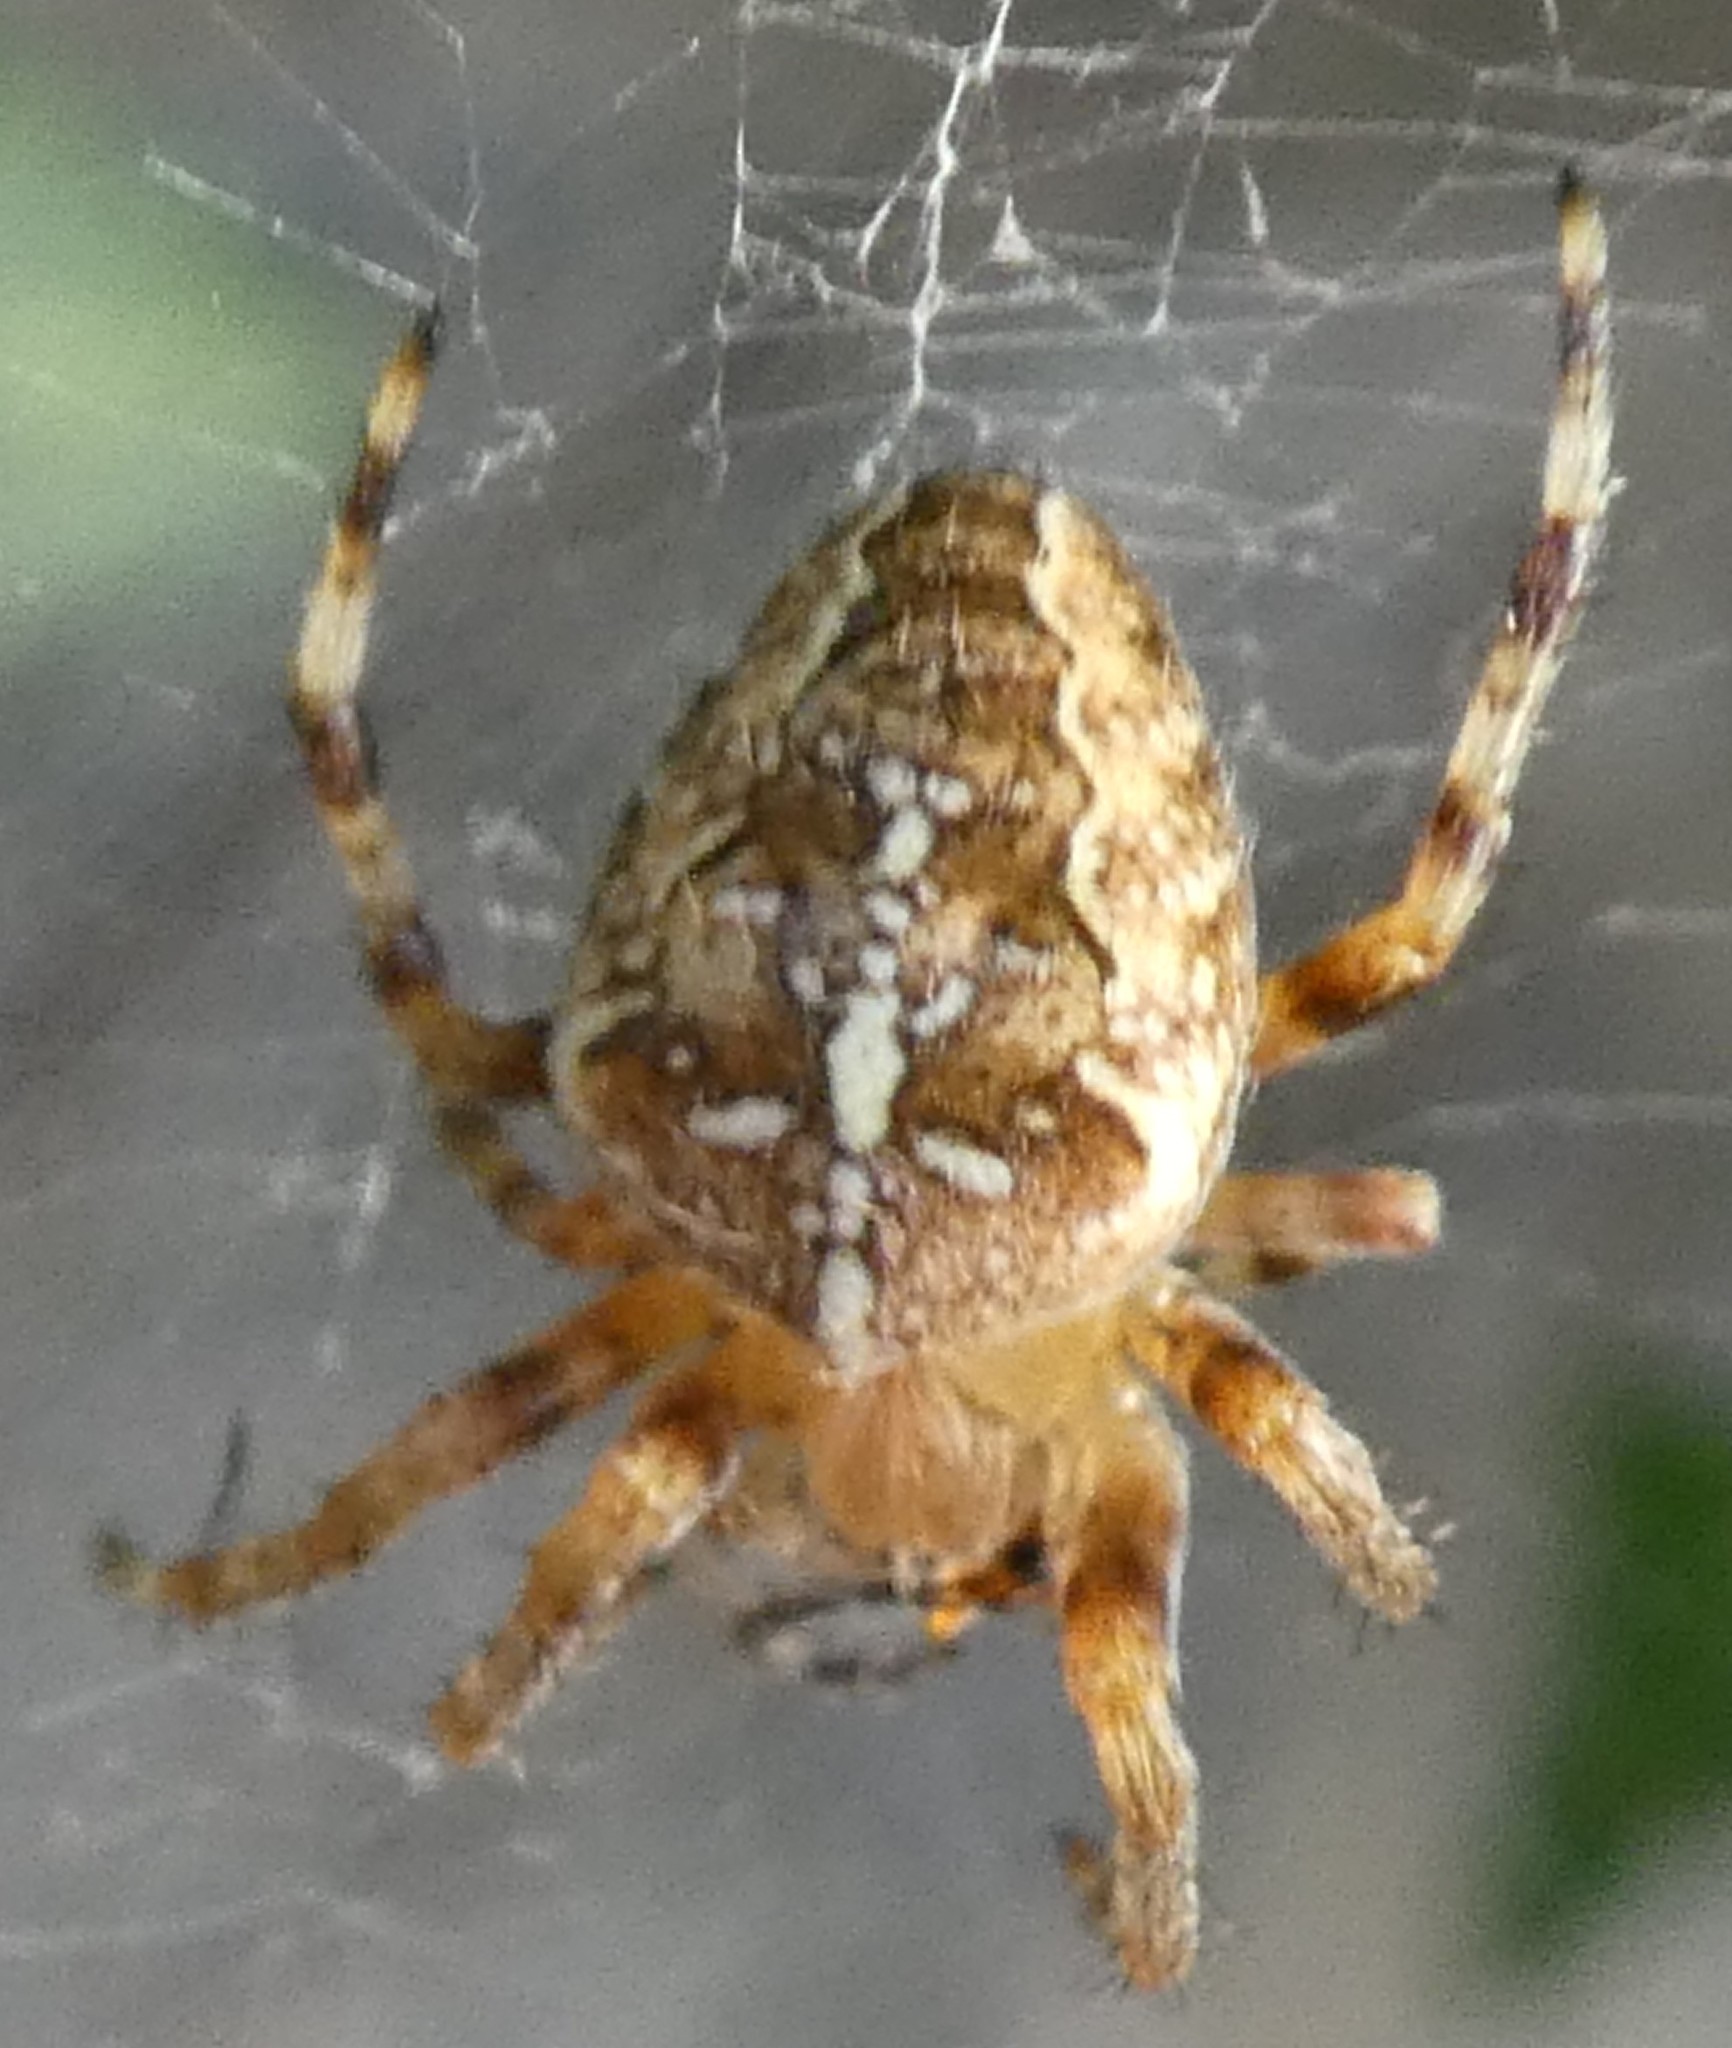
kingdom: Animalia
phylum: Arthropoda
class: Arachnida
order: Araneae
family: Araneidae
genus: Araneus
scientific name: Araneus diadematus
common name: Cross orbweaver
